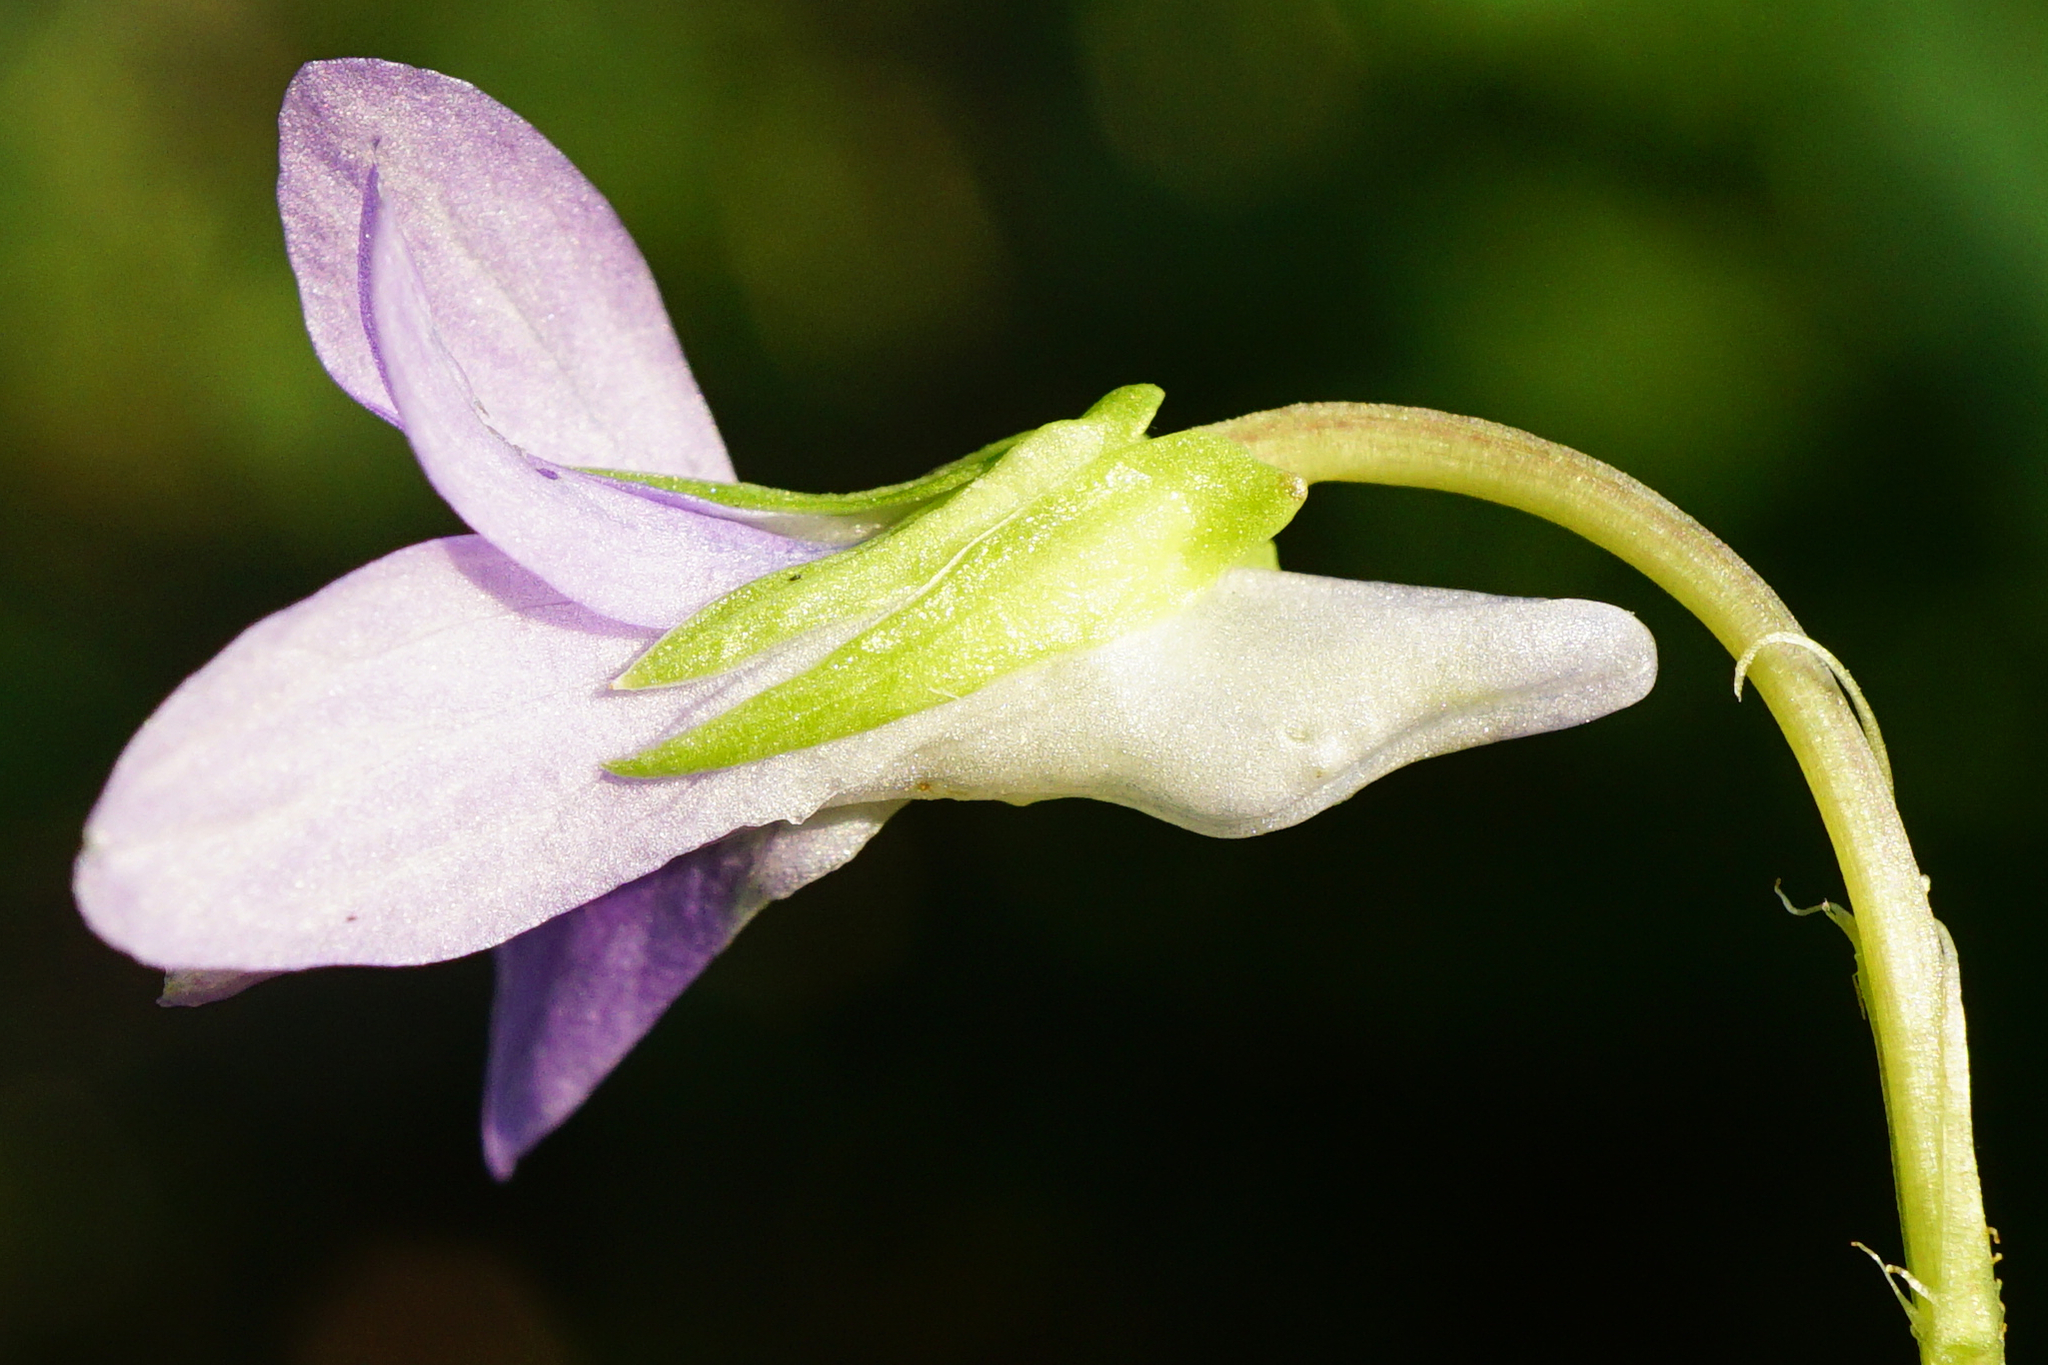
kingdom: Plantae
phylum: Tracheophyta
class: Magnoliopsida
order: Malpighiales
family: Violaceae
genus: Viola
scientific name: Viola riviniana
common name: Common dog-violet
